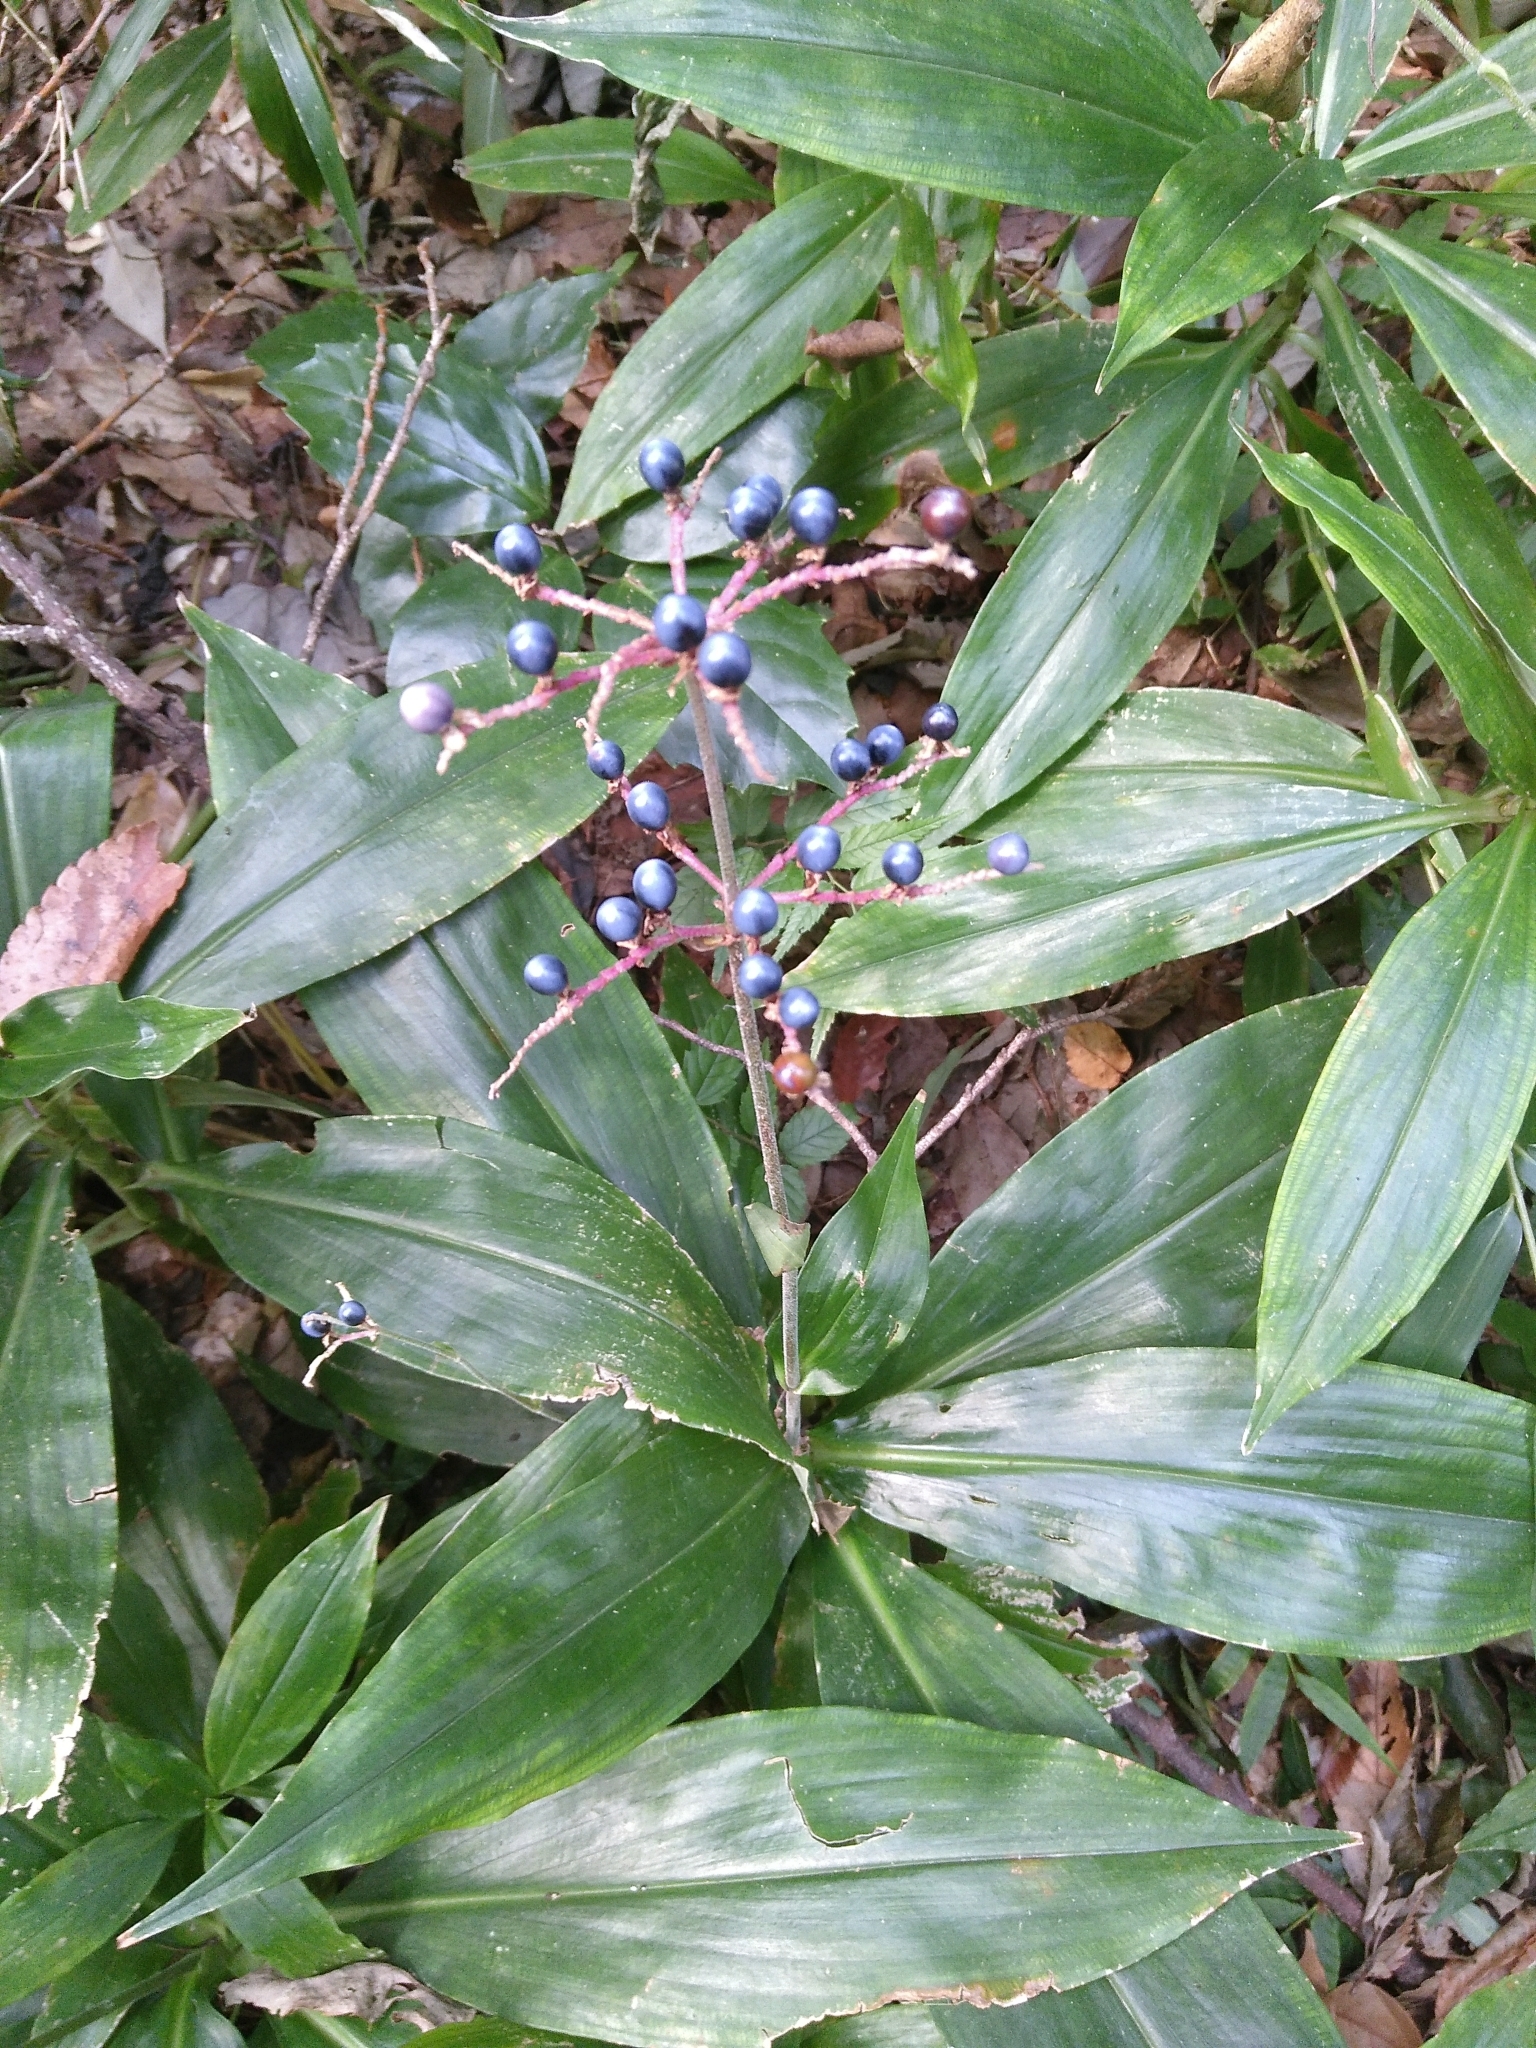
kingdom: Plantae
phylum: Tracheophyta
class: Liliopsida
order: Commelinales
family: Commelinaceae
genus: Pollia
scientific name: Pollia japonica
